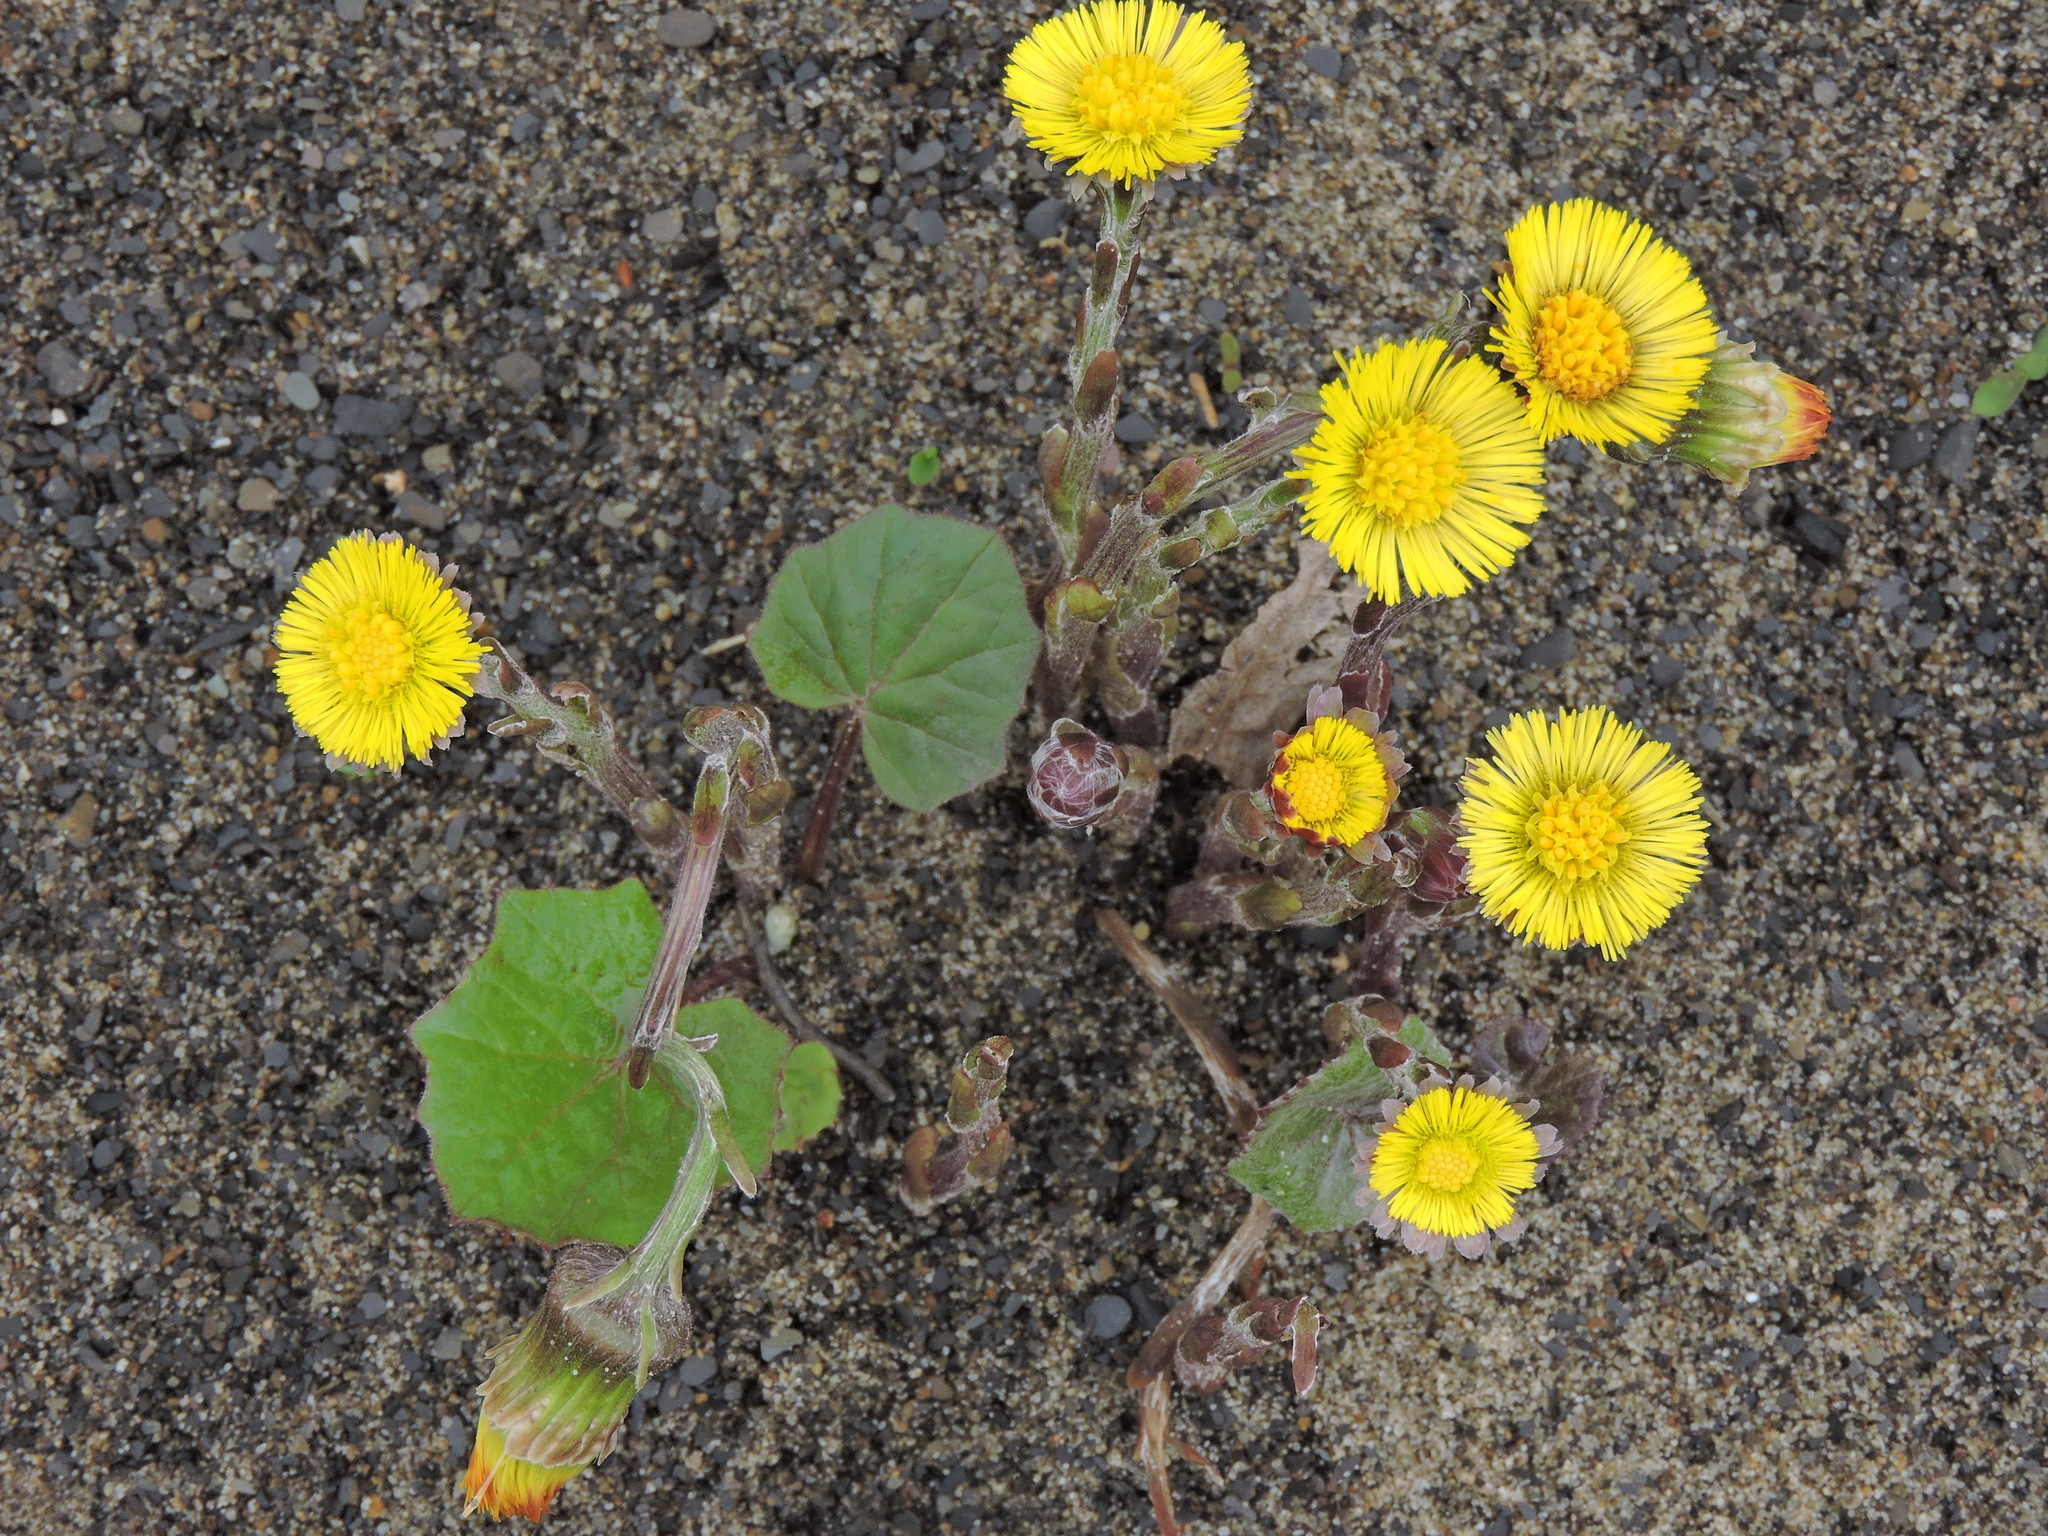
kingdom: Plantae
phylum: Tracheophyta
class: Magnoliopsida
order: Asterales
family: Asteraceae
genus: Tussilago
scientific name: Tussilago farfara
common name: Coltsfoot
